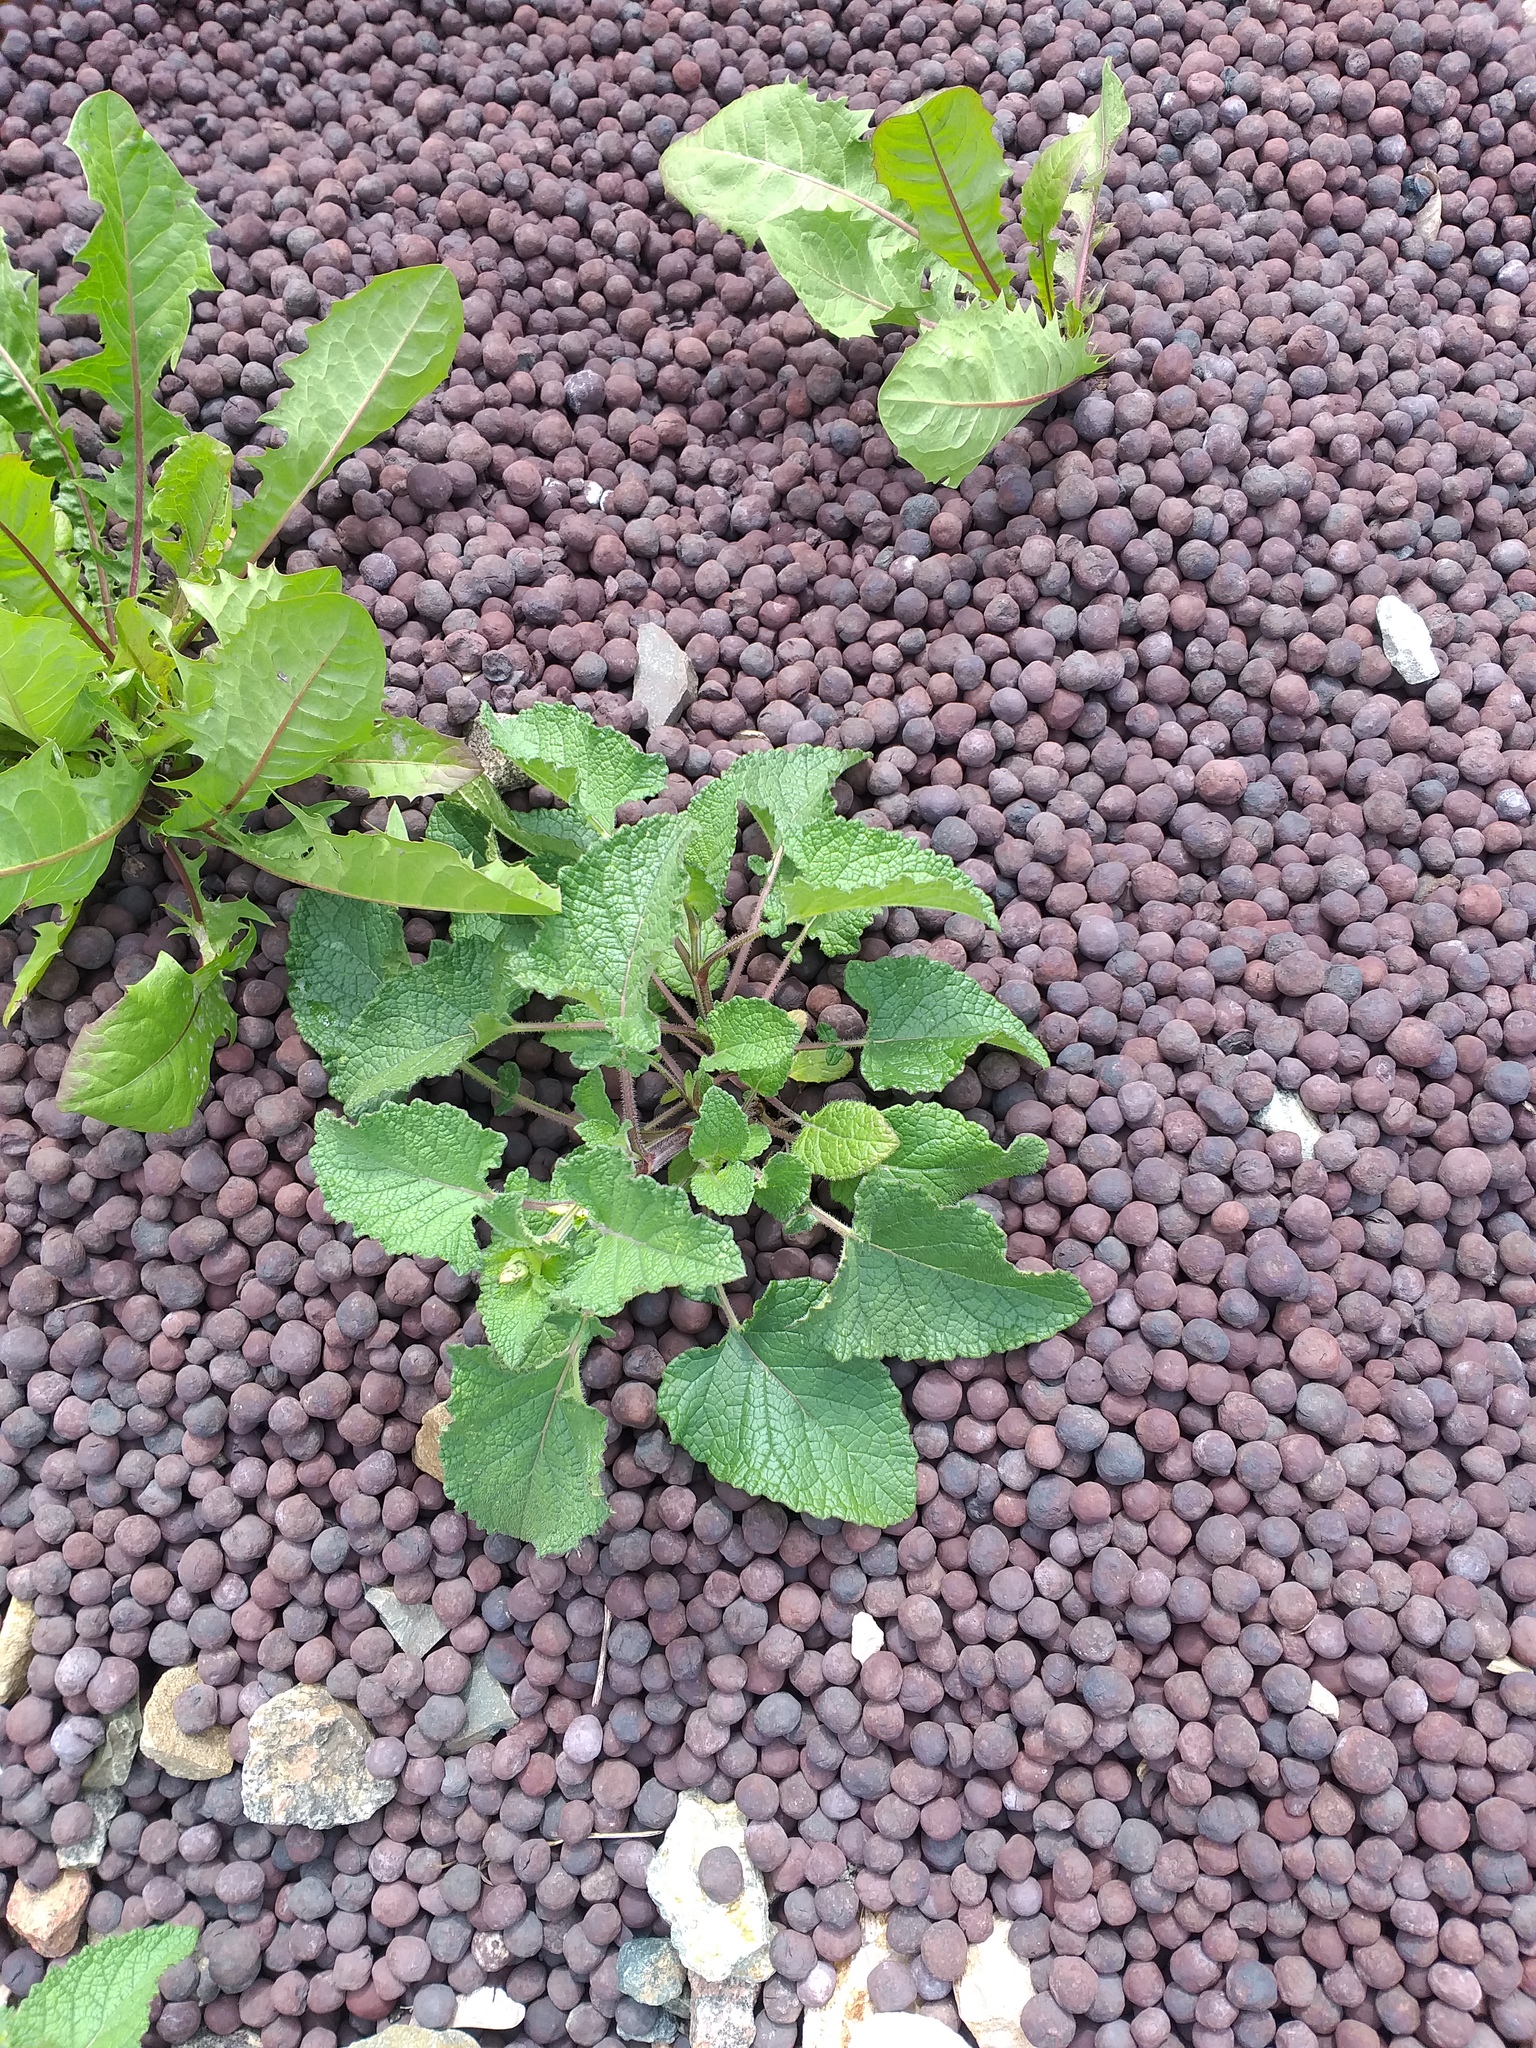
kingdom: Plantae
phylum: Tracheophyta
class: Magnoliopsida
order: Lamiales
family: Lamiaceae
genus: Salvia
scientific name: Salvia verticillata
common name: Whorled clary
